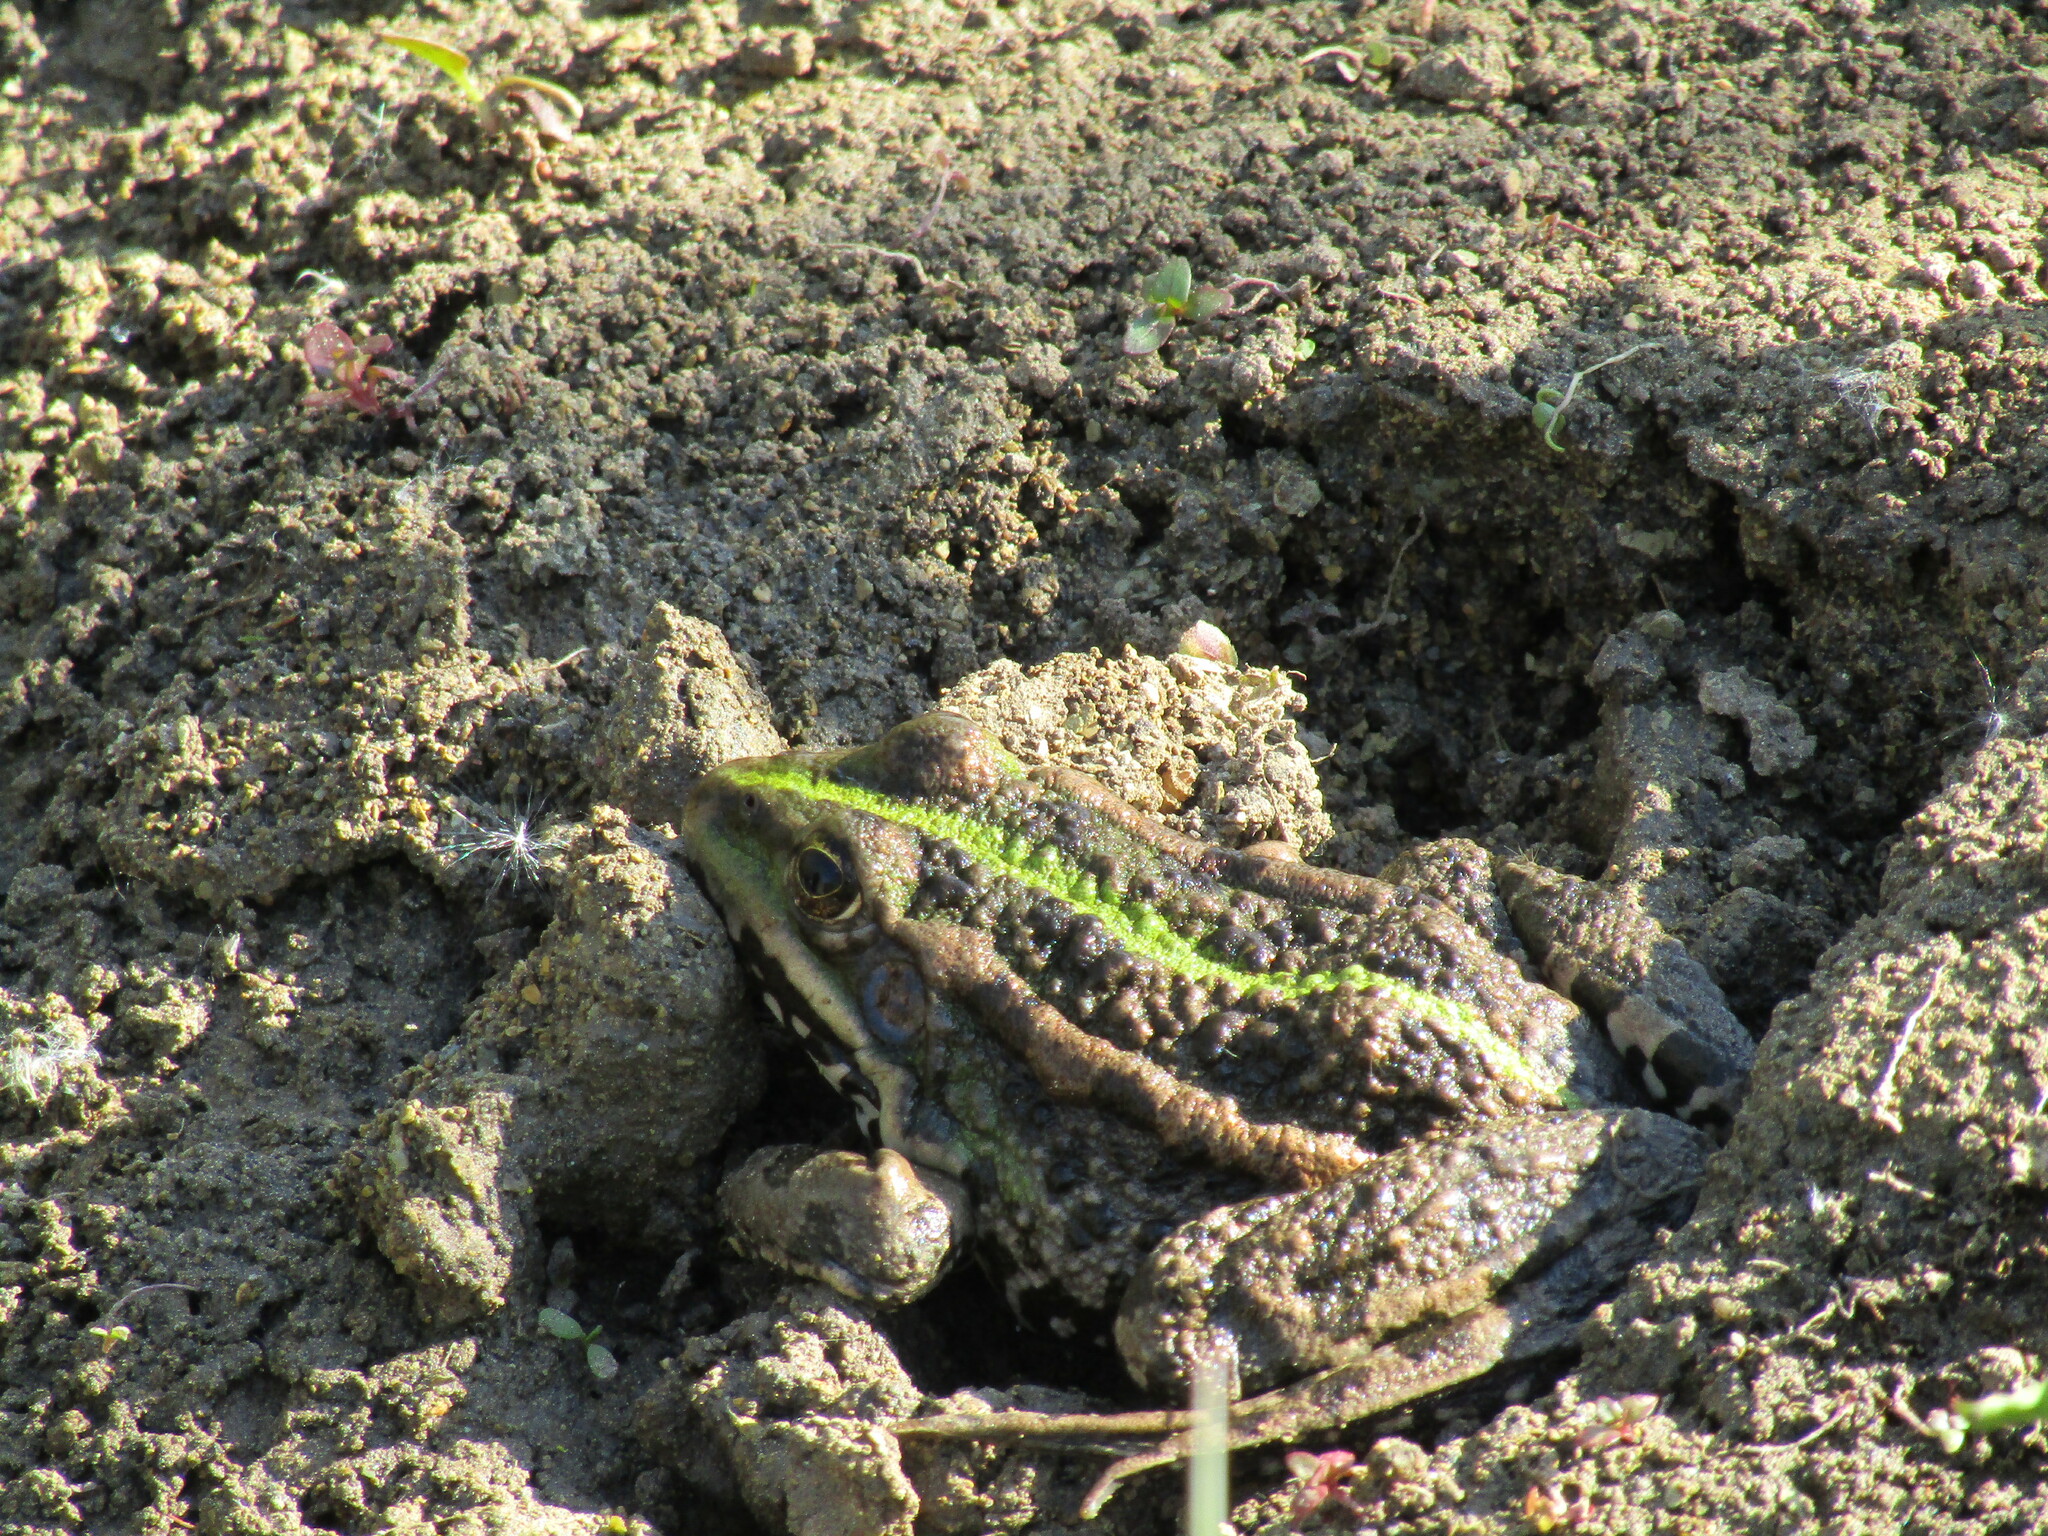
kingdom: Animalia
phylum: Chordata
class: Amphibia
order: Anura
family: Ranidae
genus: Pelophylax
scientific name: Pelophylax ridibundus
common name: Marsh frog
